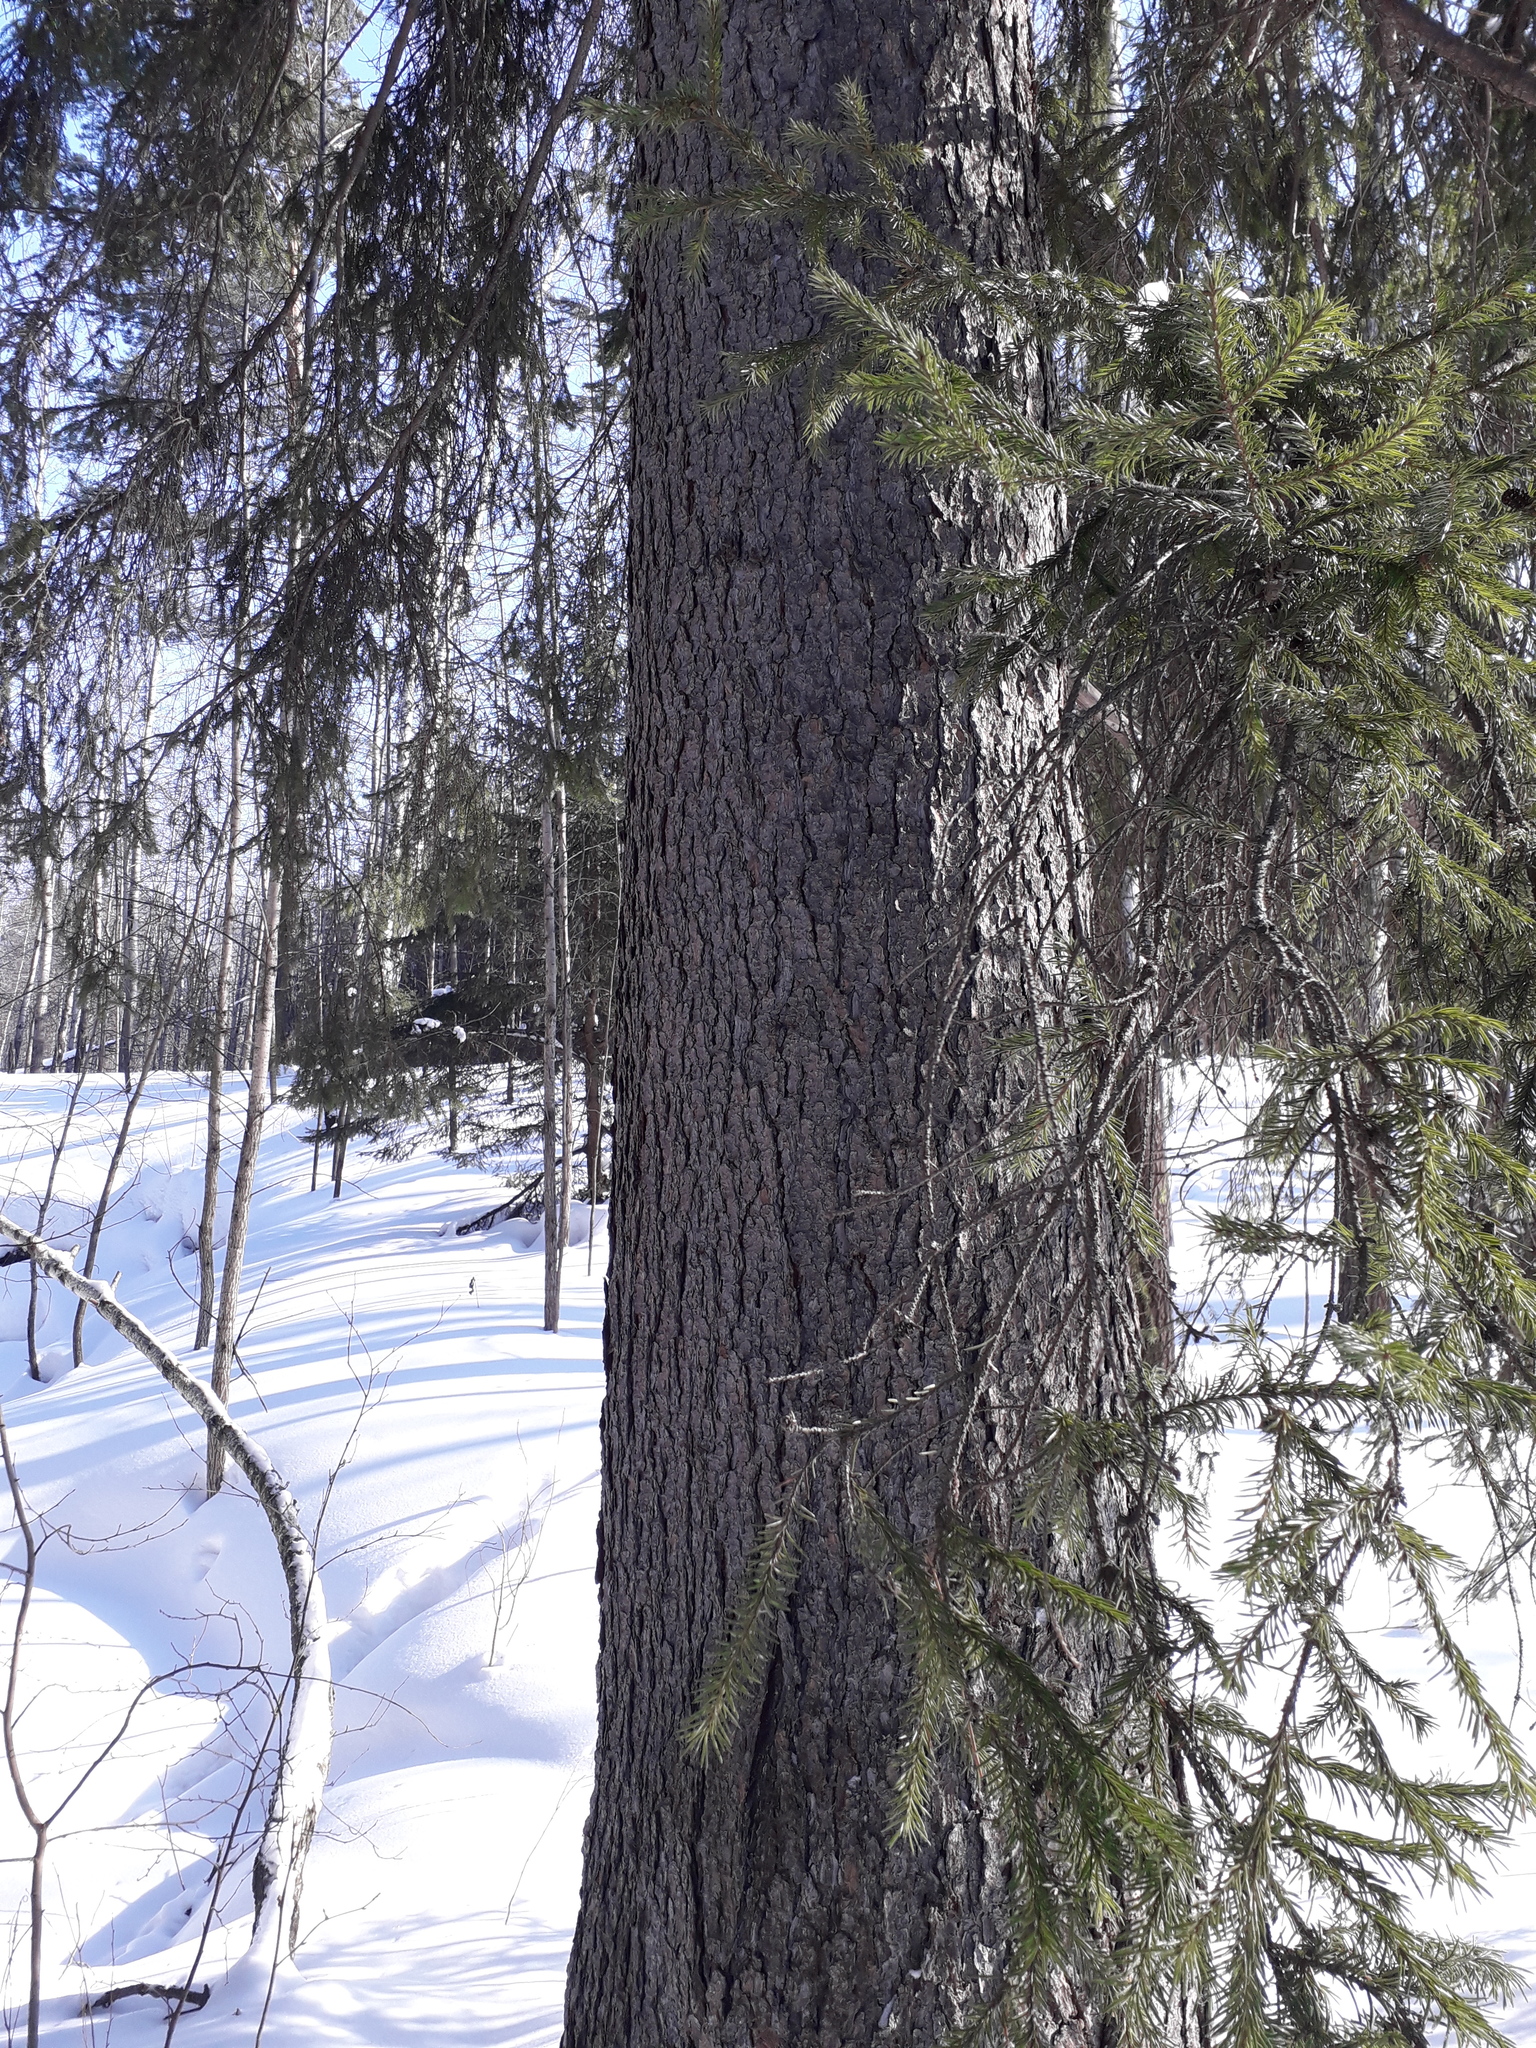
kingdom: Plantae
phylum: Tracheophyta
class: Pinopsida
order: Pinales
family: Pinaceae
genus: Picea
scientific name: Picea obovata
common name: Siberian spruce
